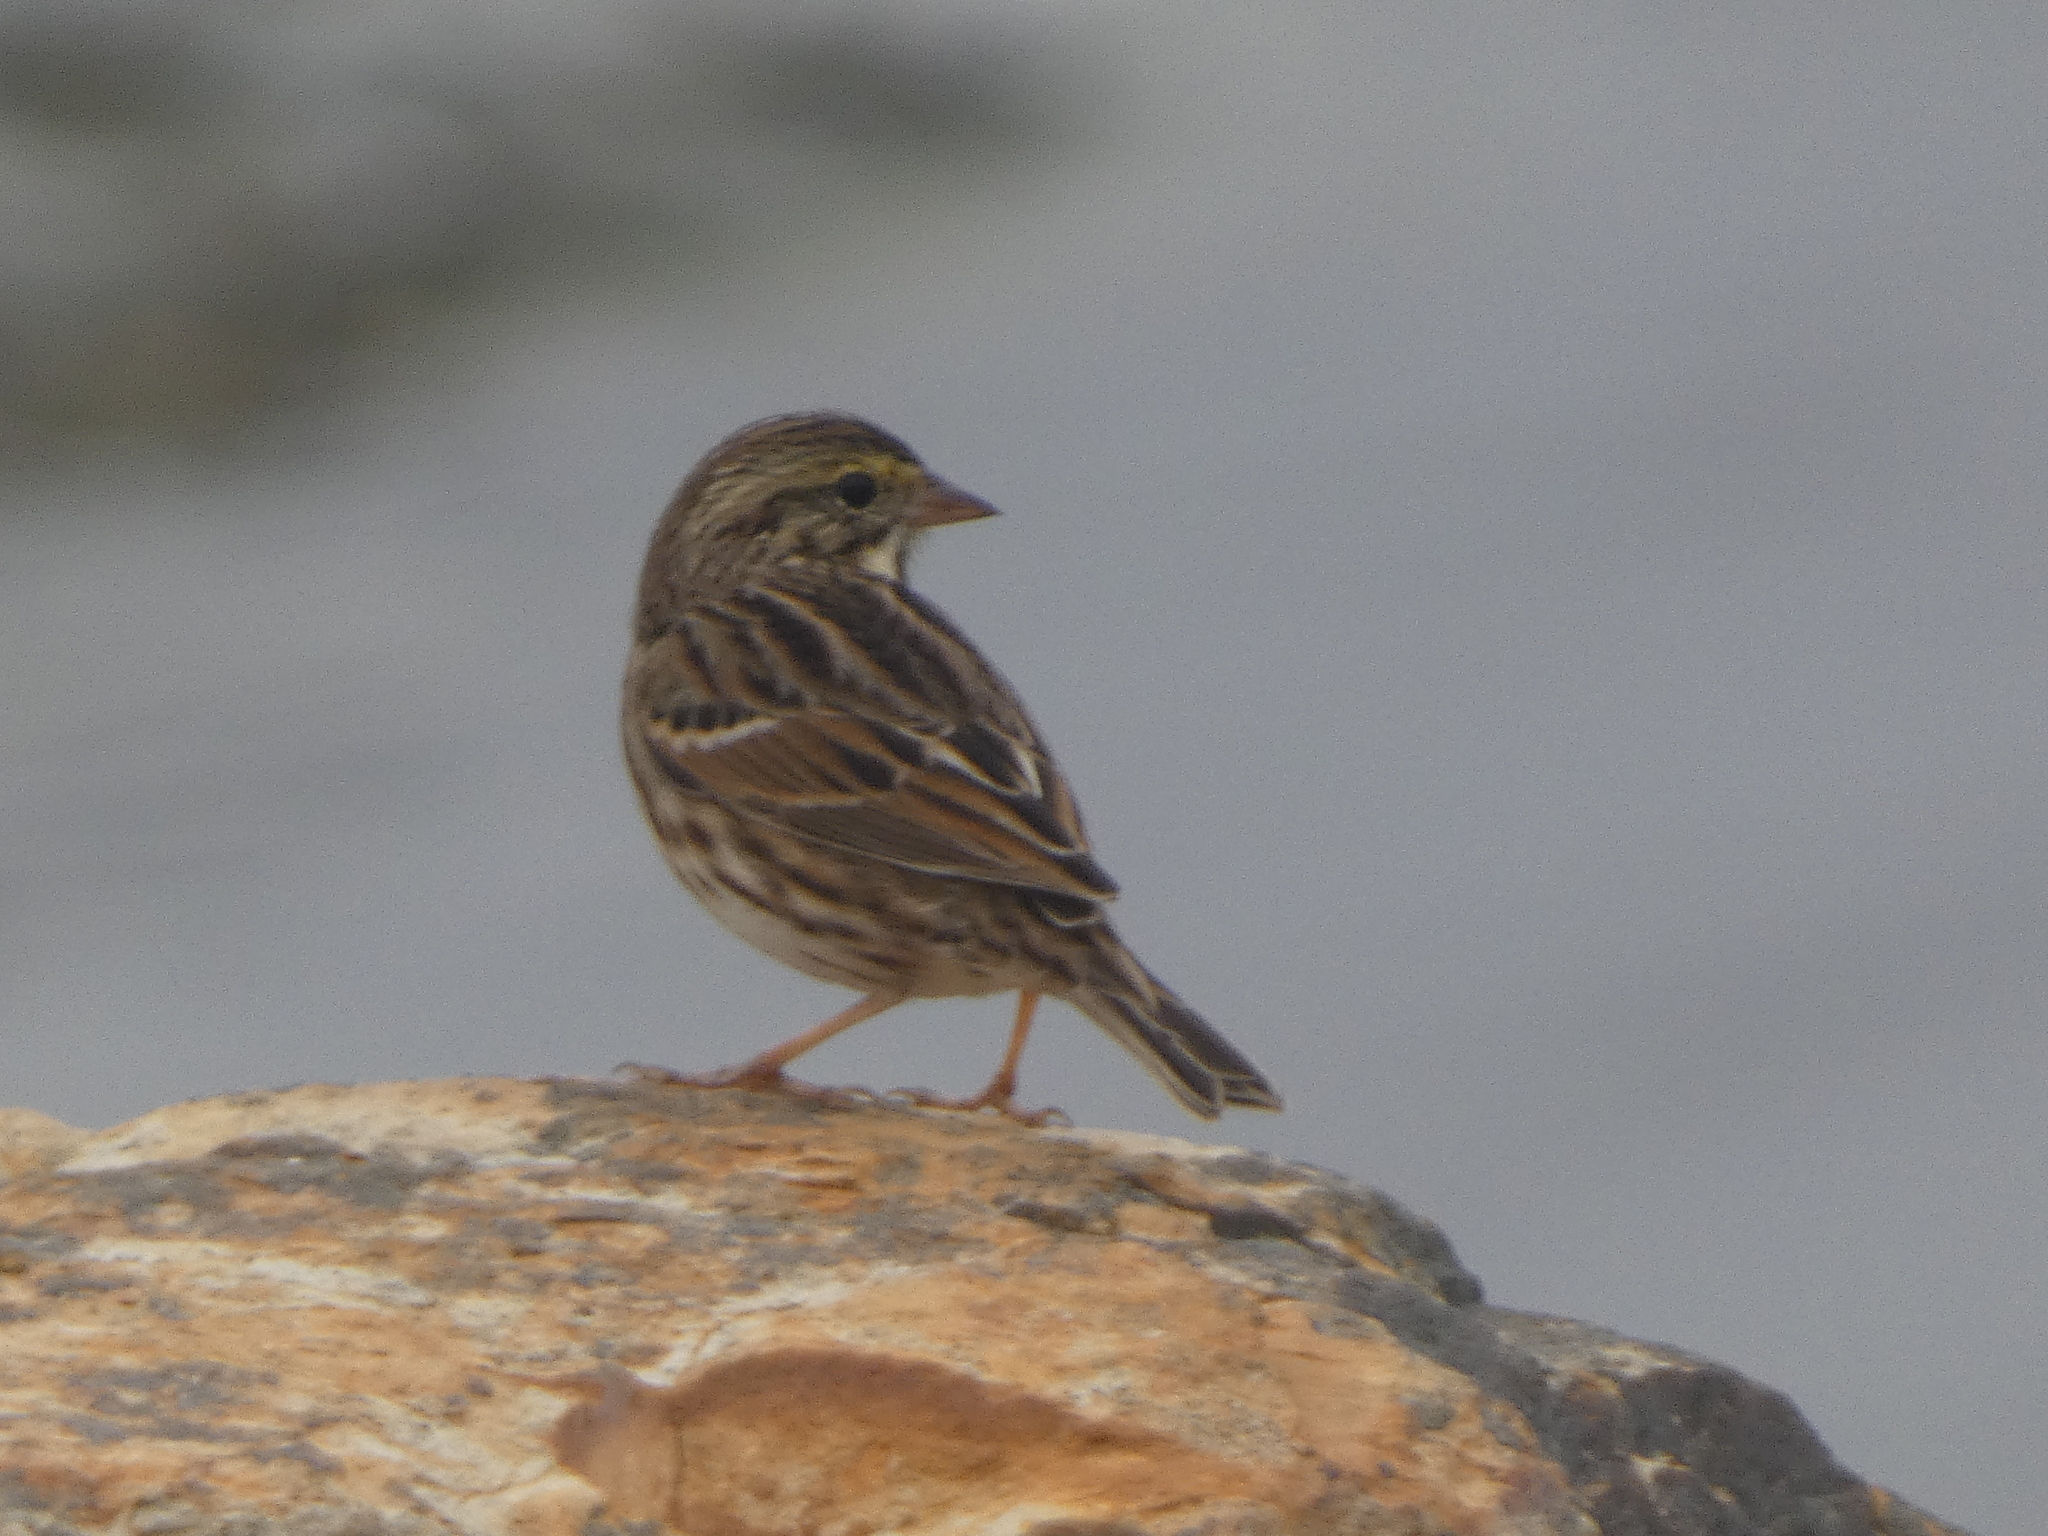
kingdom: Animalia
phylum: Chordata
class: Aves
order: Passeriformes
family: Passerellidae
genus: Passerculus
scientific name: Passerculus sandwichensis
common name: Savannah sparrow
